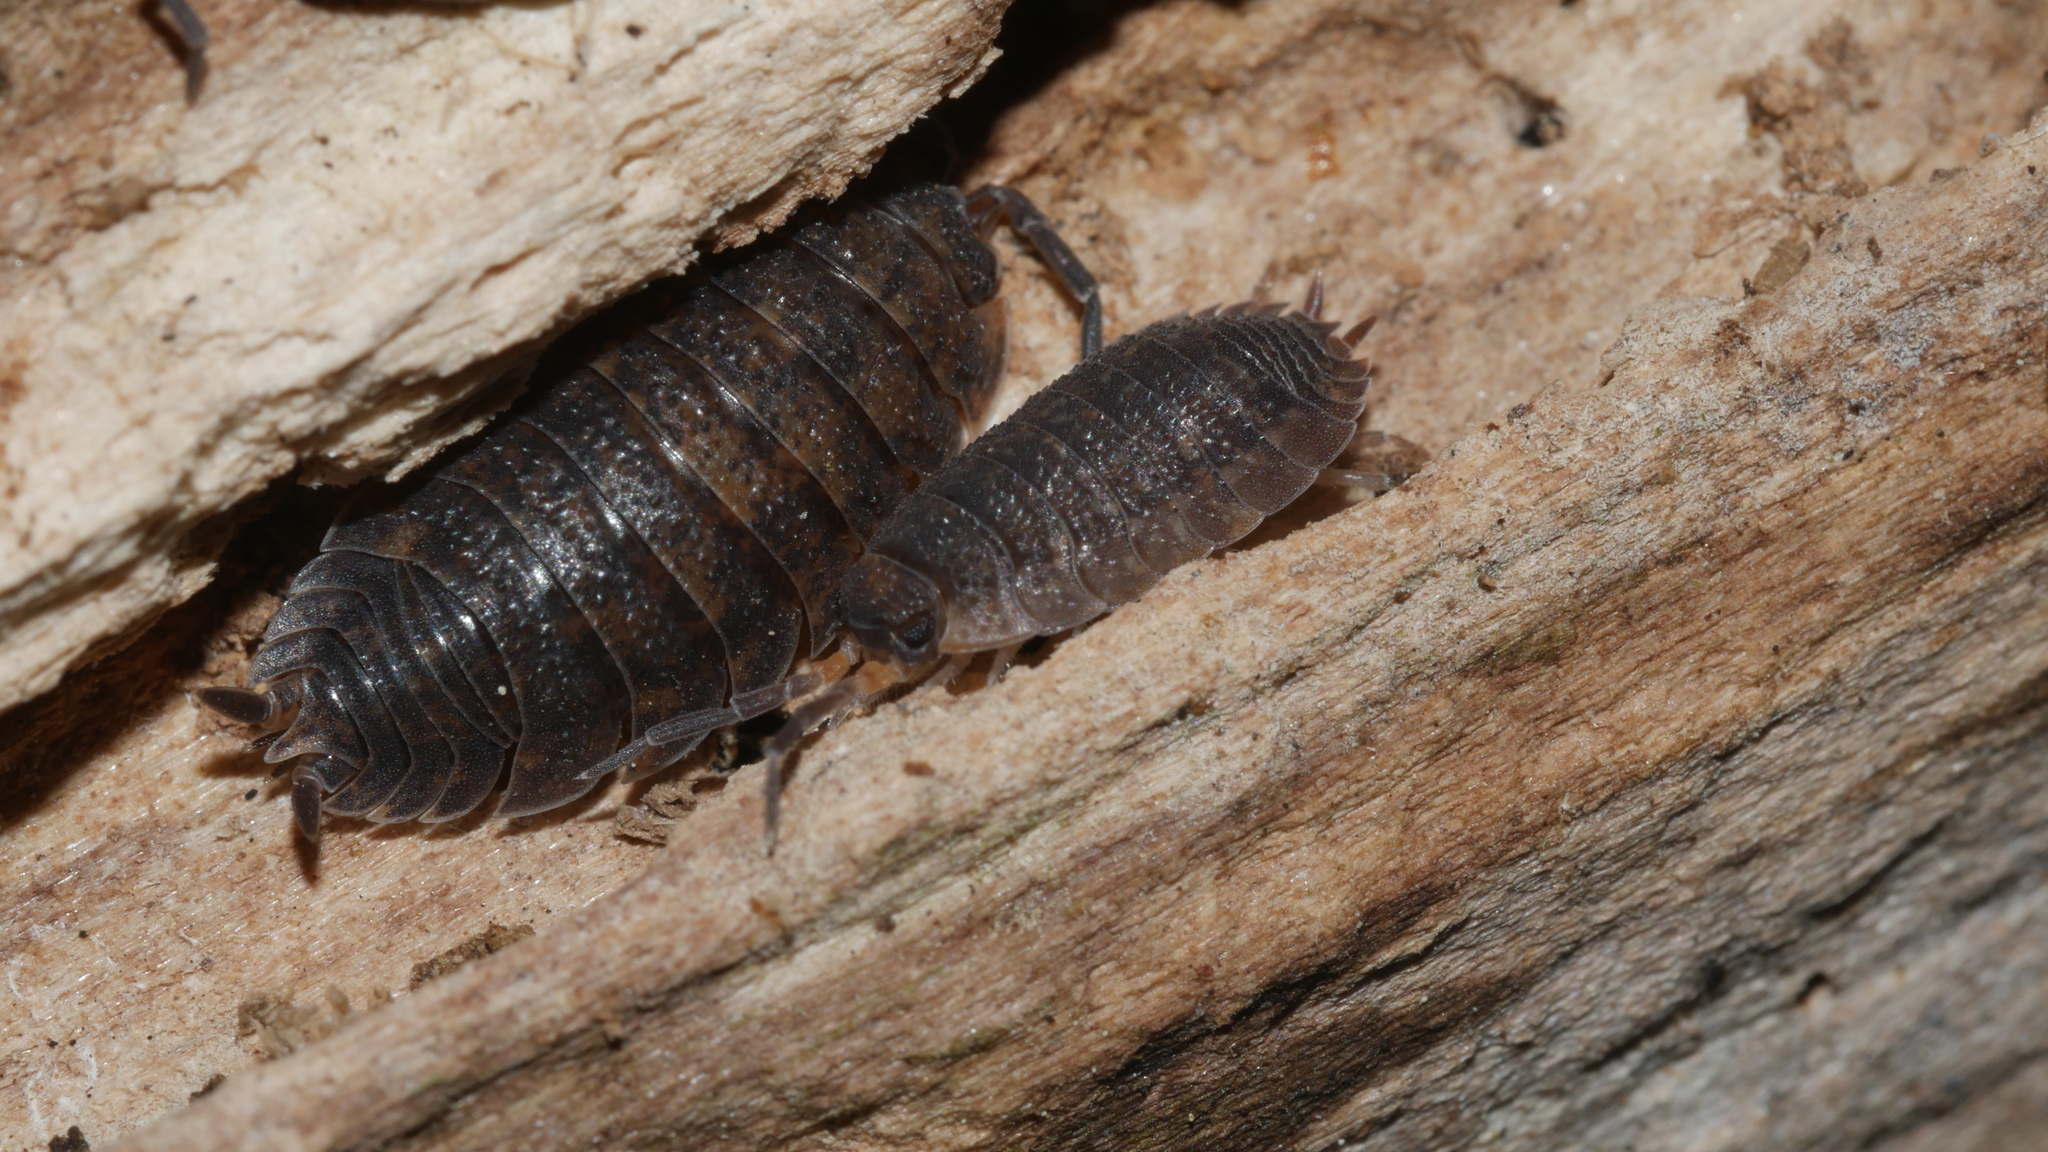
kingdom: Animalia
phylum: Arthropoda
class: Malacostraca
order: Isopoda
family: Porcellionidae
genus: Porcellio
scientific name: Porcellio scaber
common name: Common rough woodlouse
